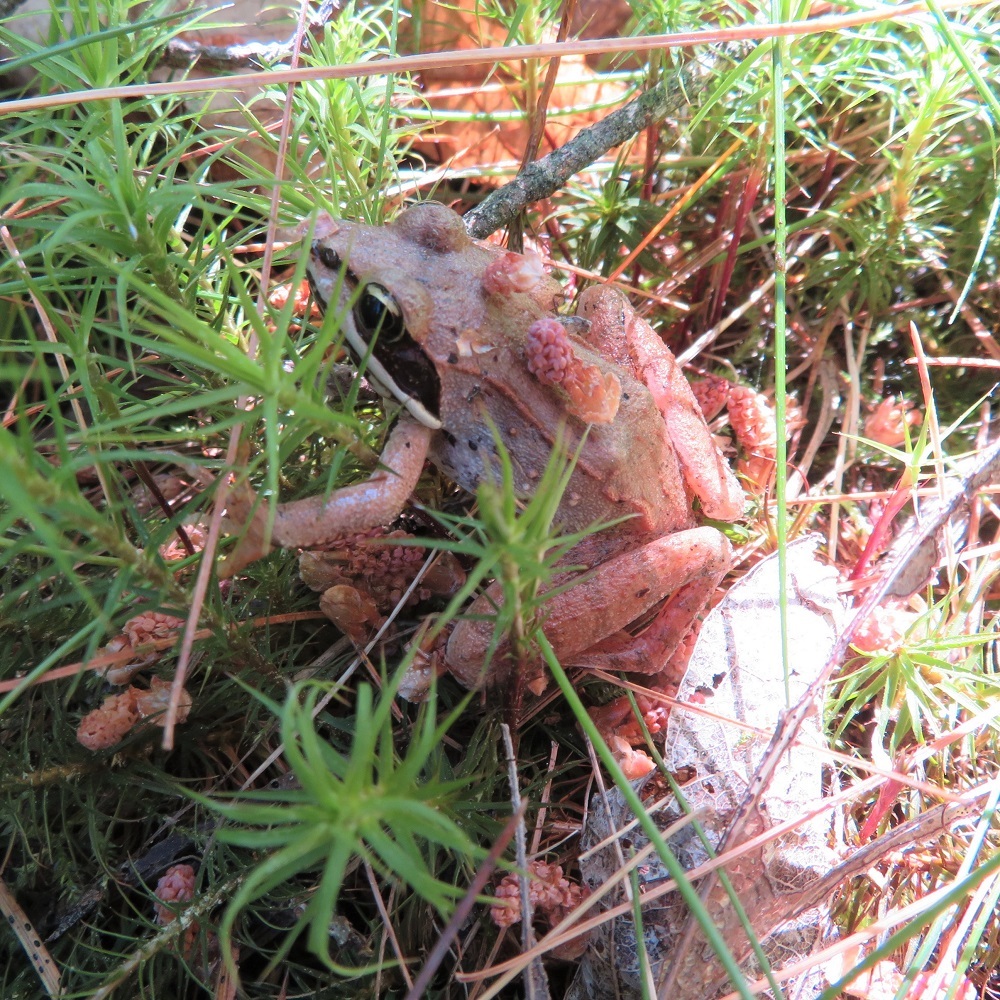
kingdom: Animalia
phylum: Chordata
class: Amphibia
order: Anura
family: Ranidae
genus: Lithobates
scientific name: Lithobates sylvaticus
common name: Wood frog
